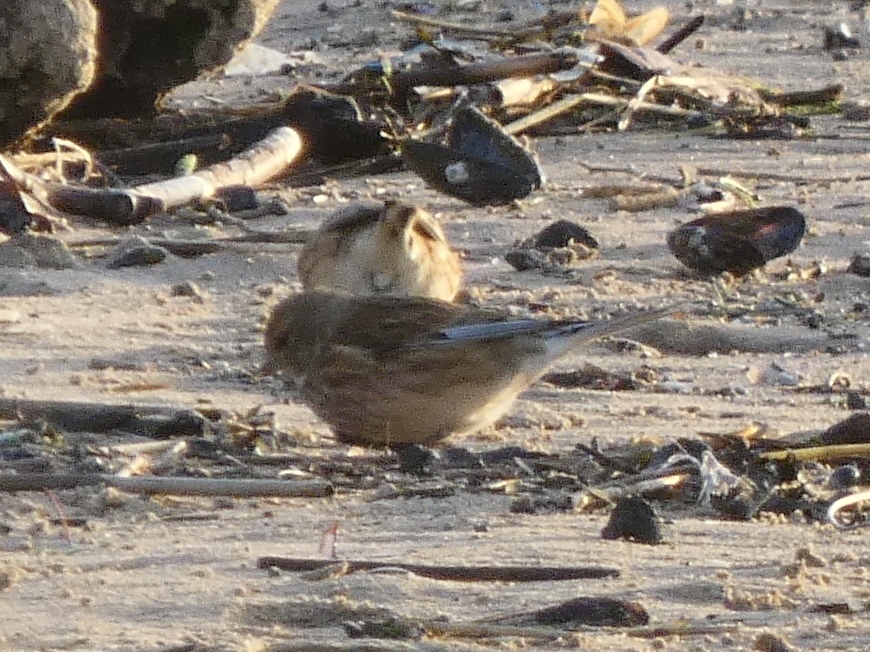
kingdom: Animalia
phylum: Chordata
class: Aves
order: Passeriformes
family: Fringillidae
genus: Linaria
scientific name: Linaria cannabina
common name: Common linnet
